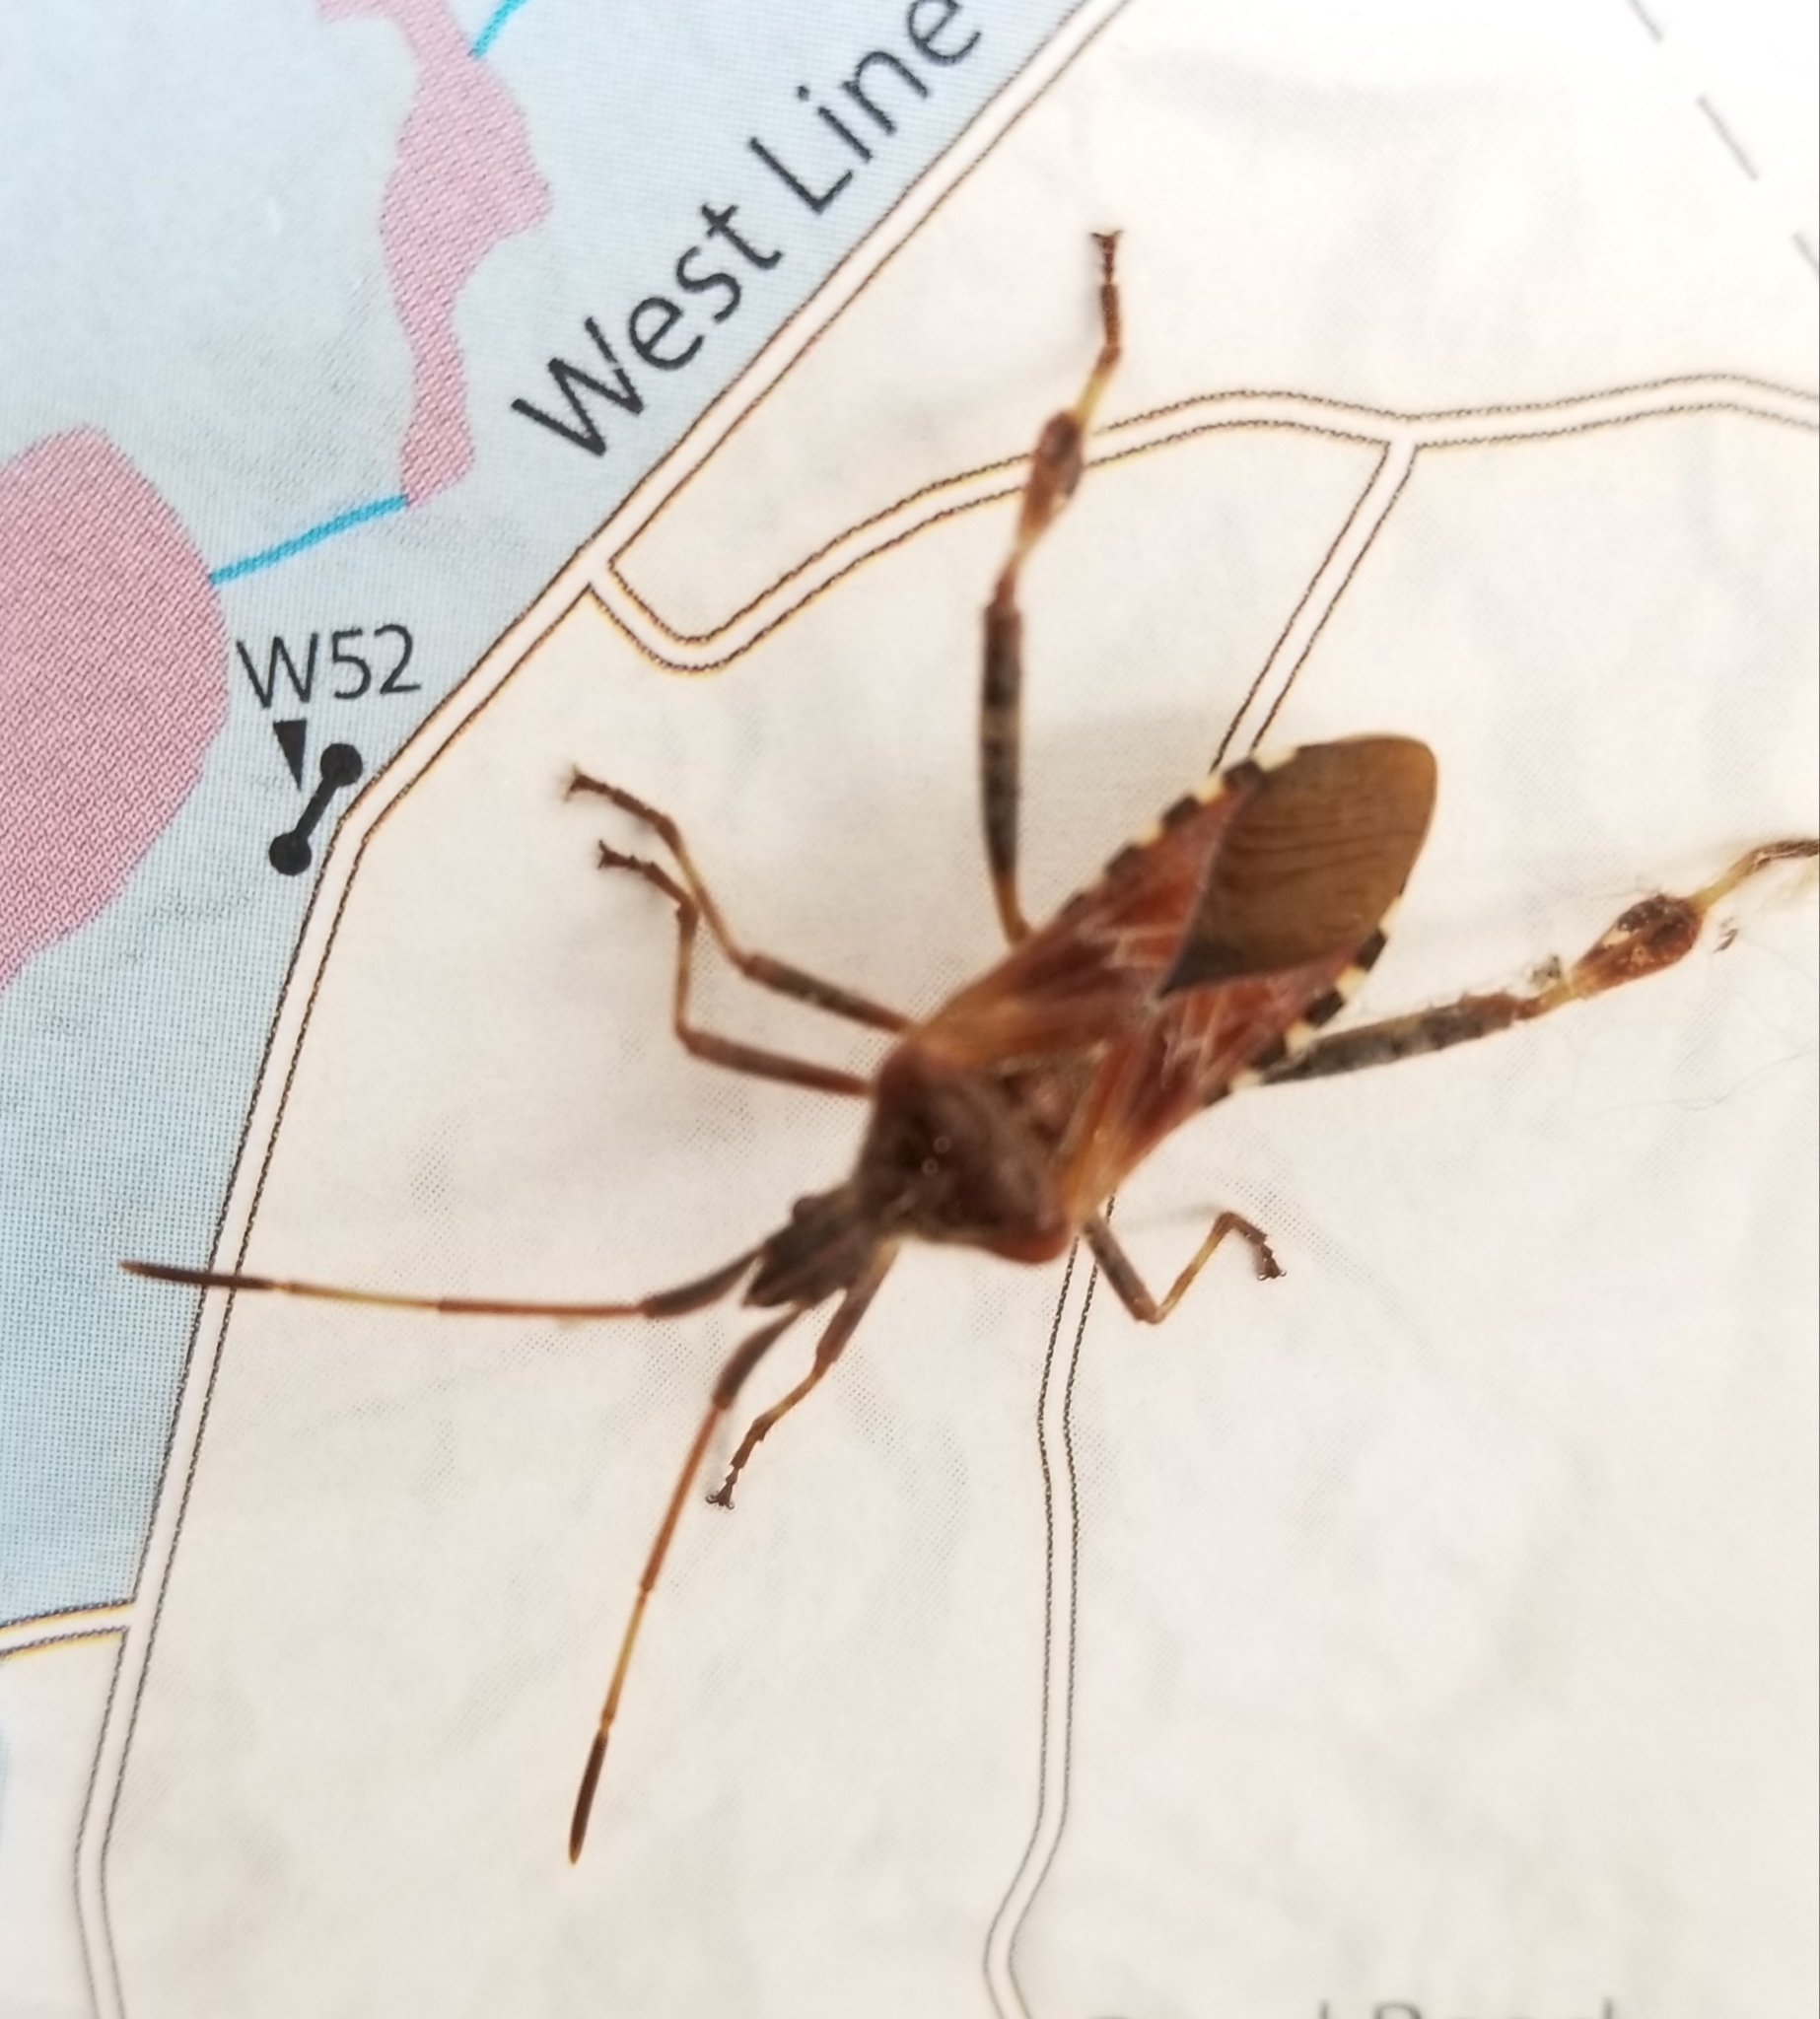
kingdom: Animalia
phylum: Arthropoda
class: Insecta
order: Hemiptera
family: Coreidae
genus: Leptoglossus
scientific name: Leptoglossus occidentalis
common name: Western conifer-seed bug
